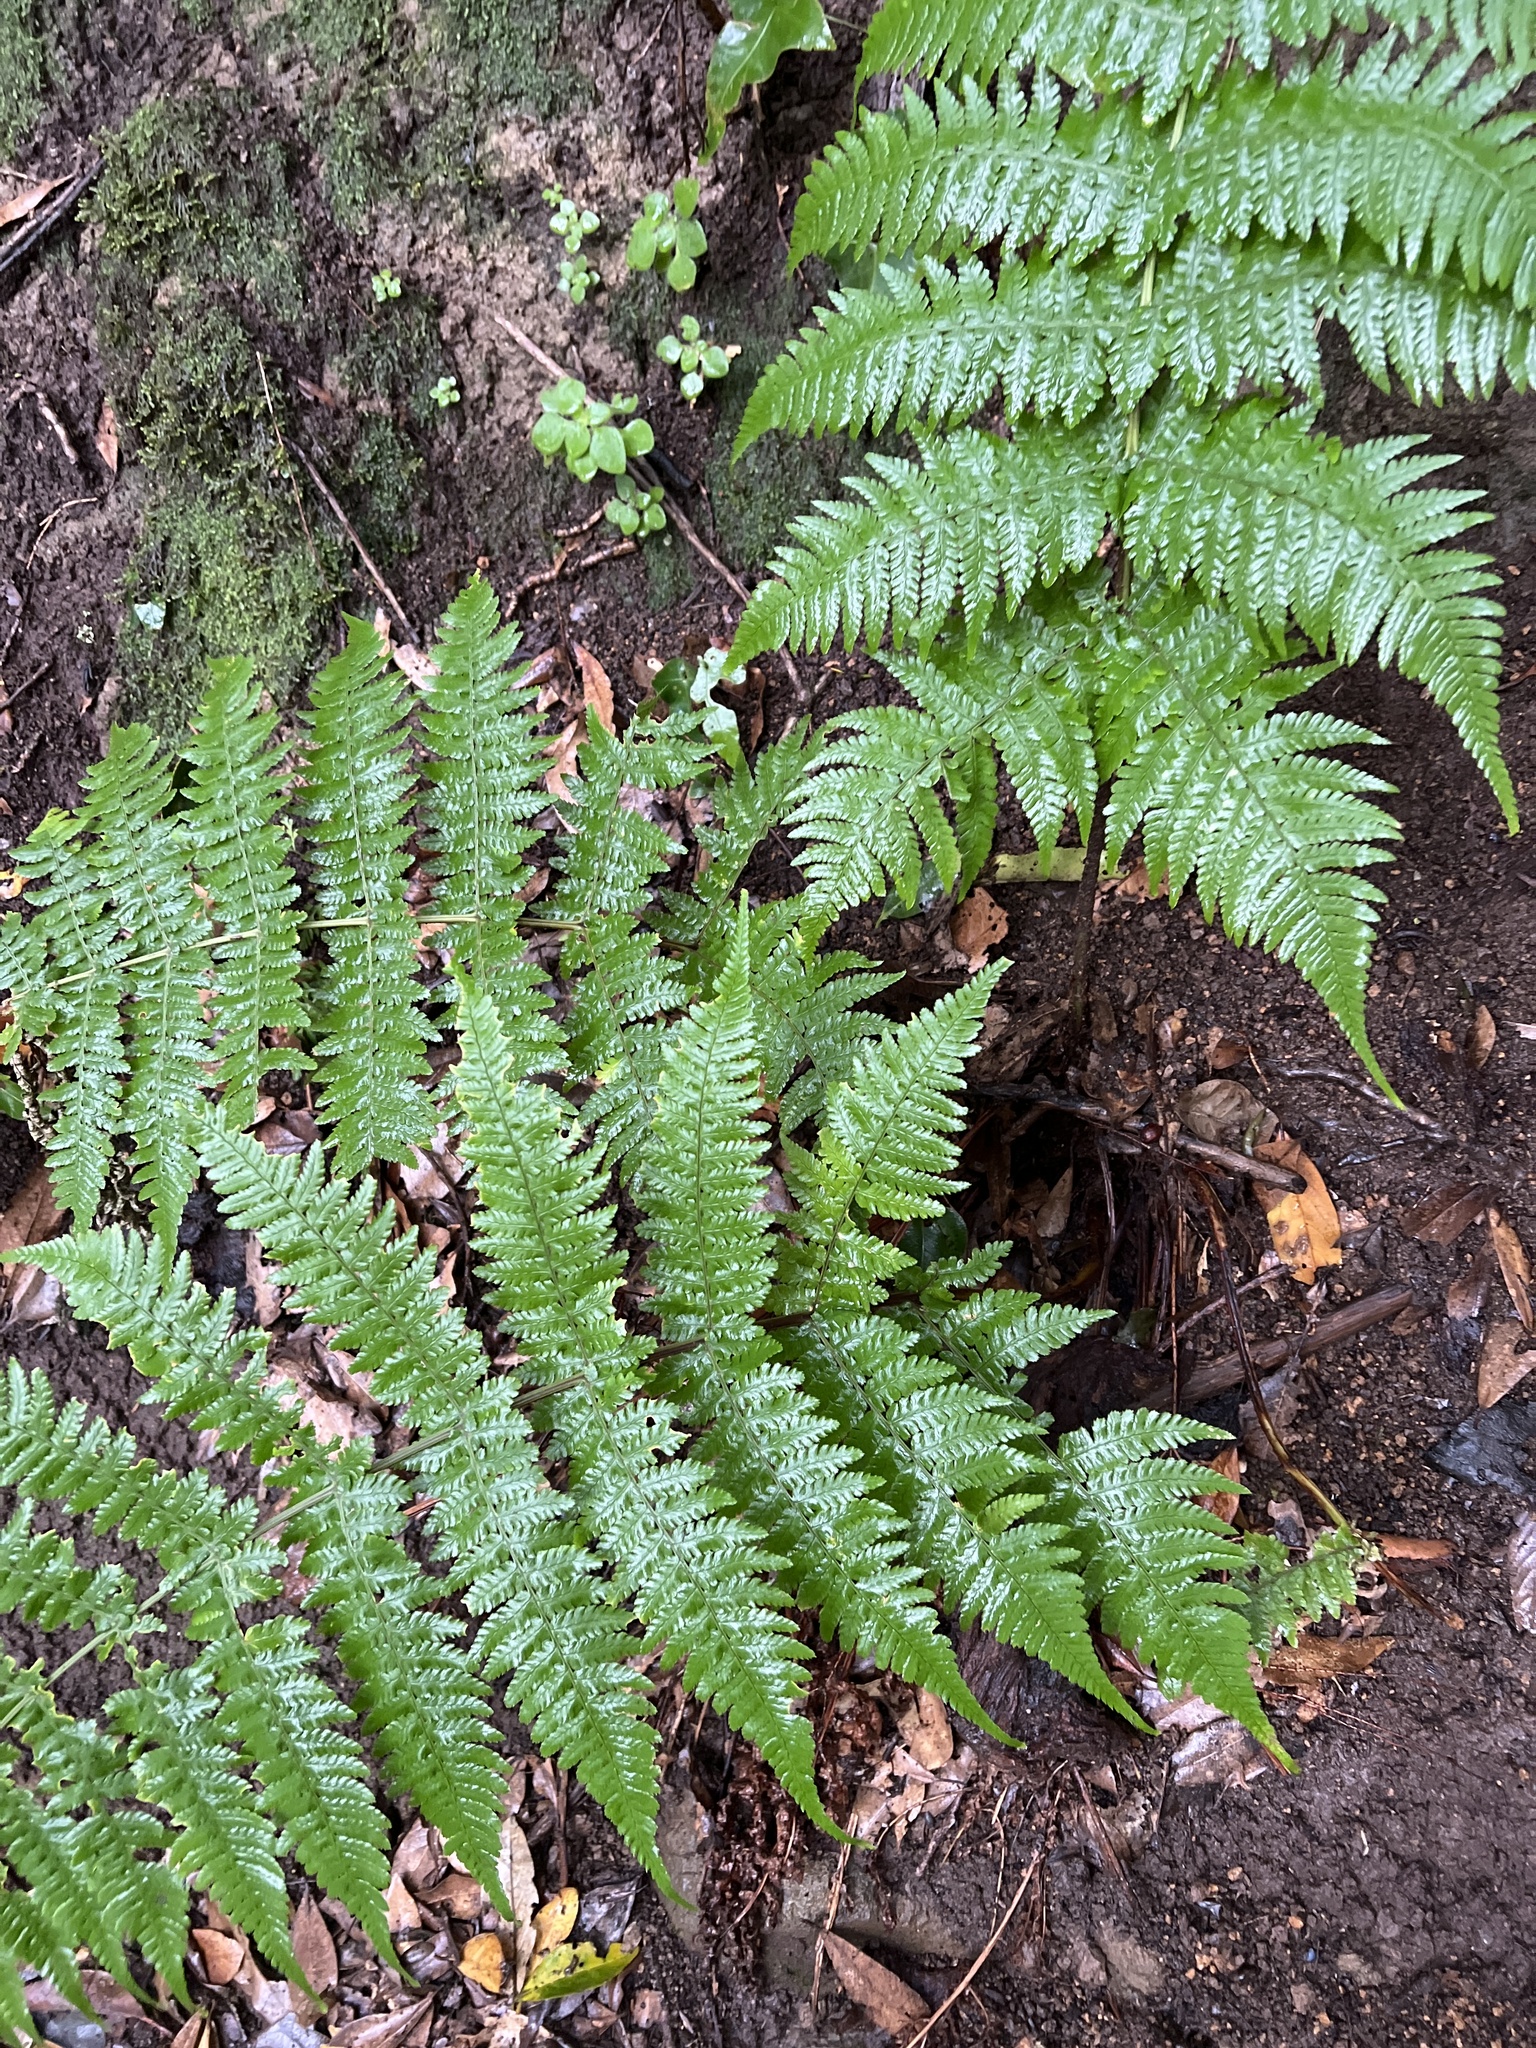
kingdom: Plantae
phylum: Tracheophyta
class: Polypodiopsida
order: Polypodiales
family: Dryopteridaceae
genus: Dryopteris
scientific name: Dryopteris oligodonta
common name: Canarian male-fern
